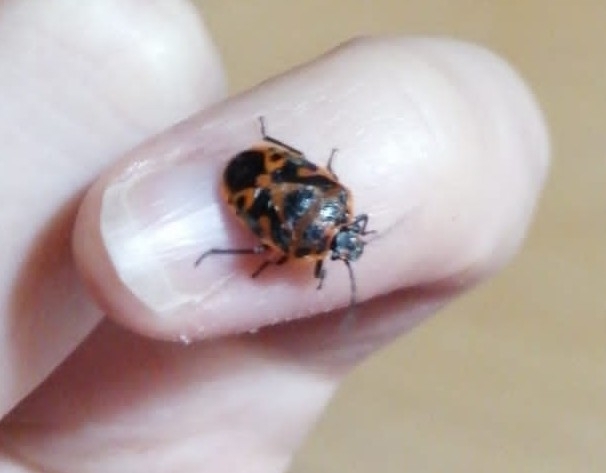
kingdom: Animalia
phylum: Arthropoda
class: Insecta
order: Hemiptera
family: Pentatomidae
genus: Eurydema
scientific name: Eurydema ornata
